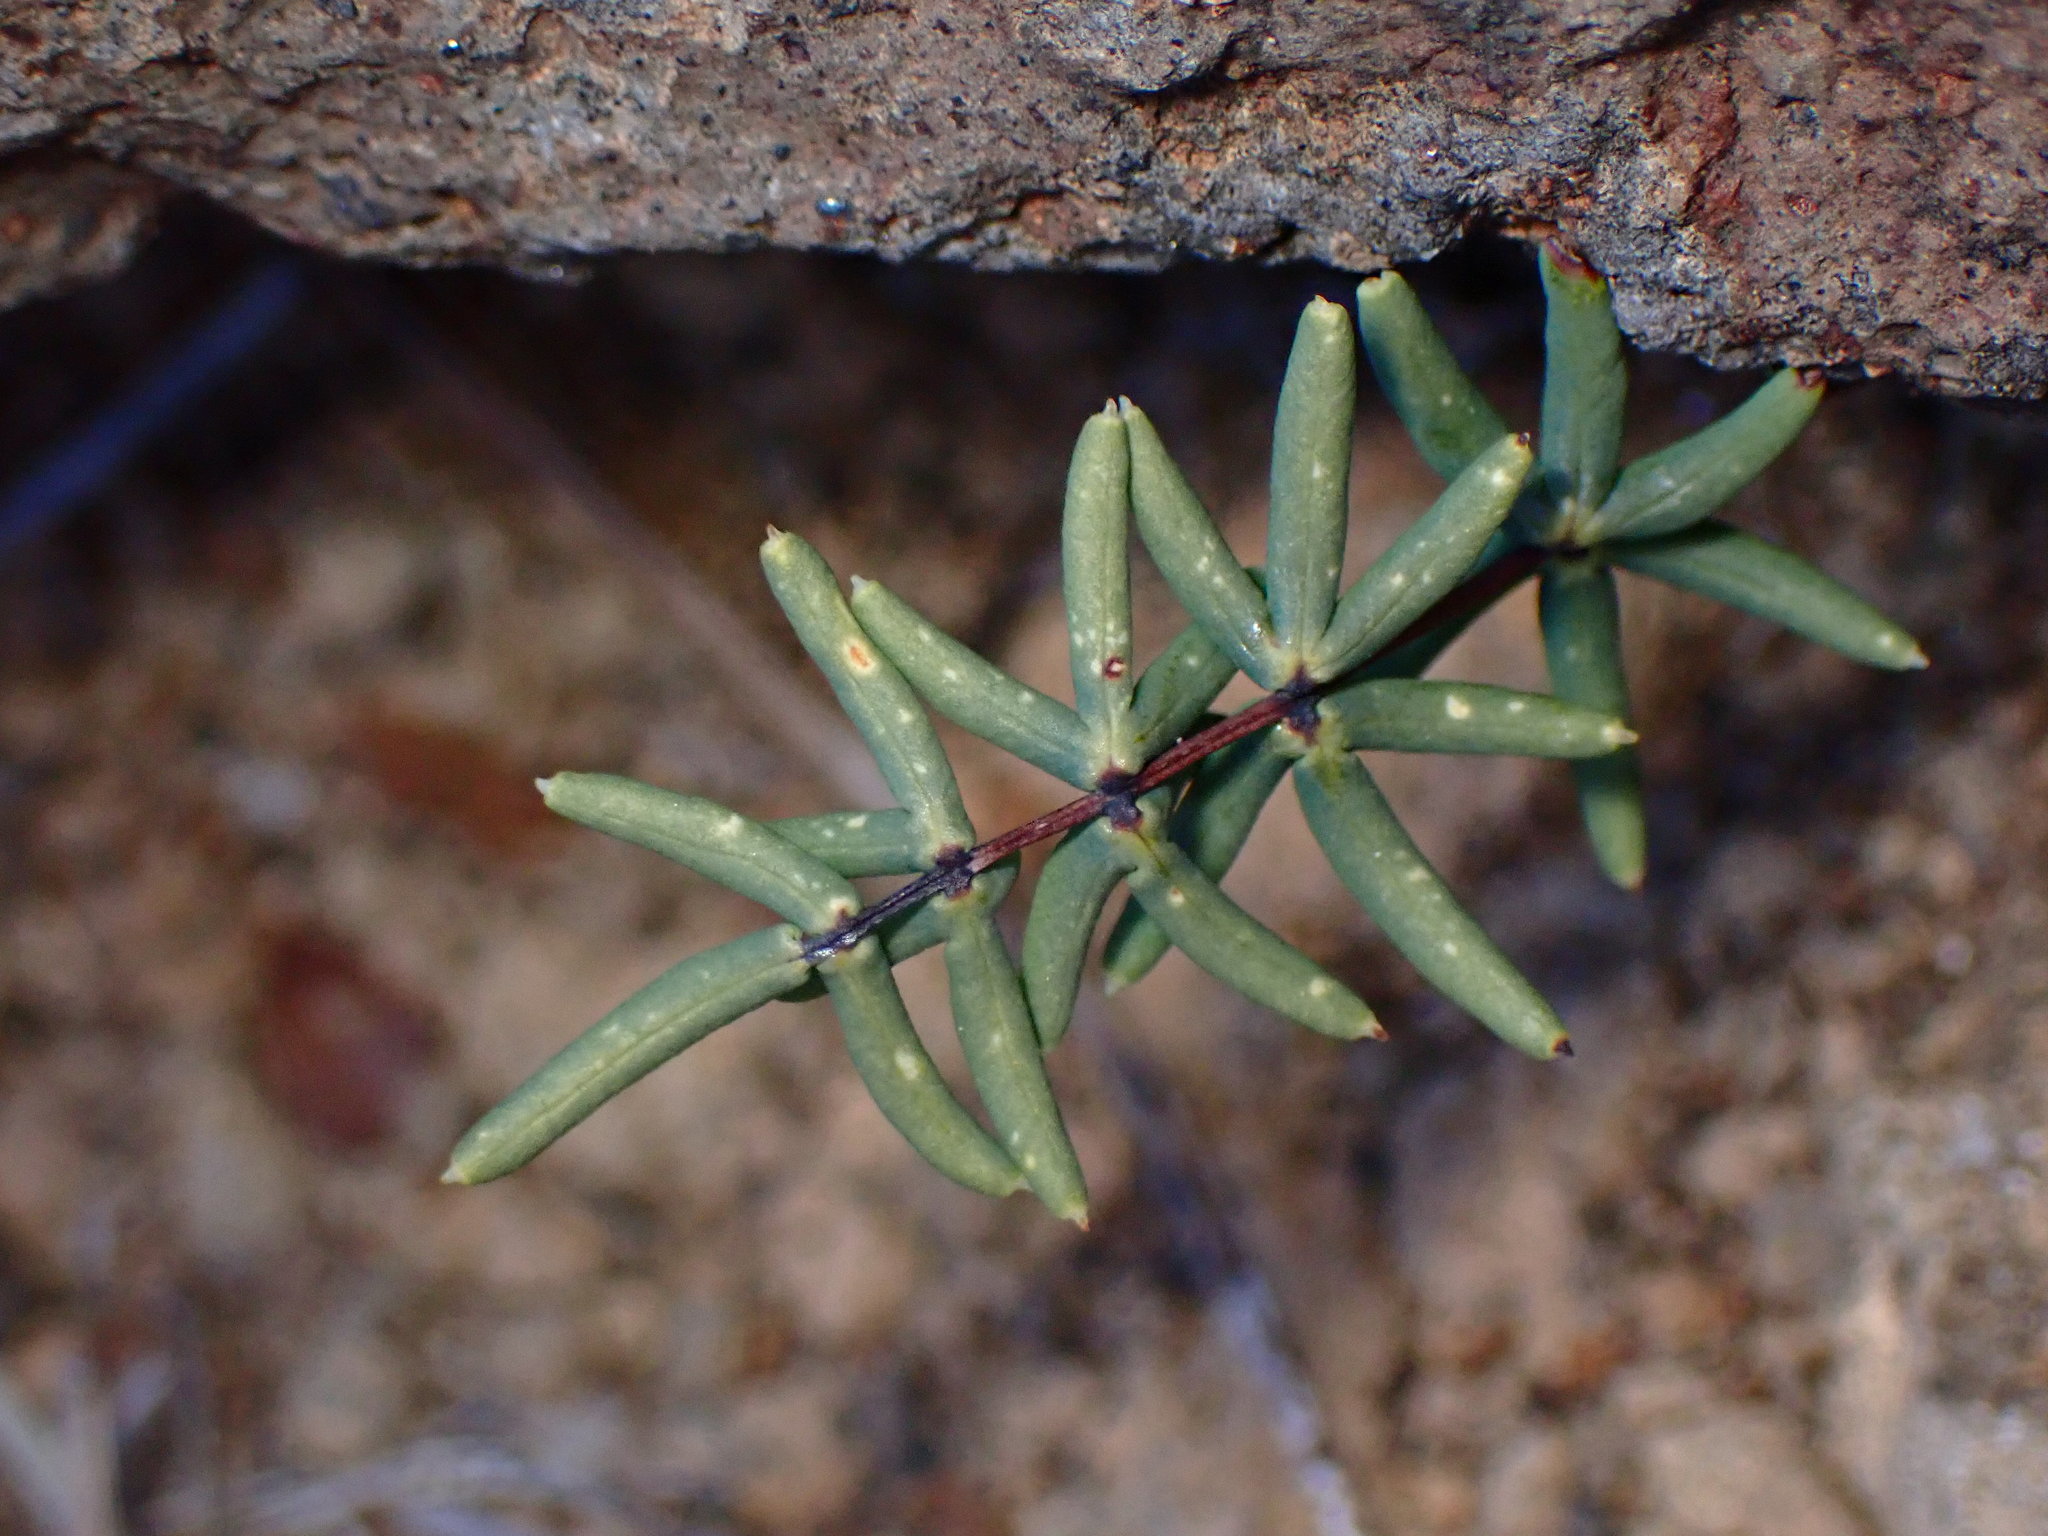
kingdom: Plantae
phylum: Tracheophyta
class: Polypodiopsida
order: Polypodiales
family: Pteridaceae
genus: Pellaea
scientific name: Pellaea ternifolia
